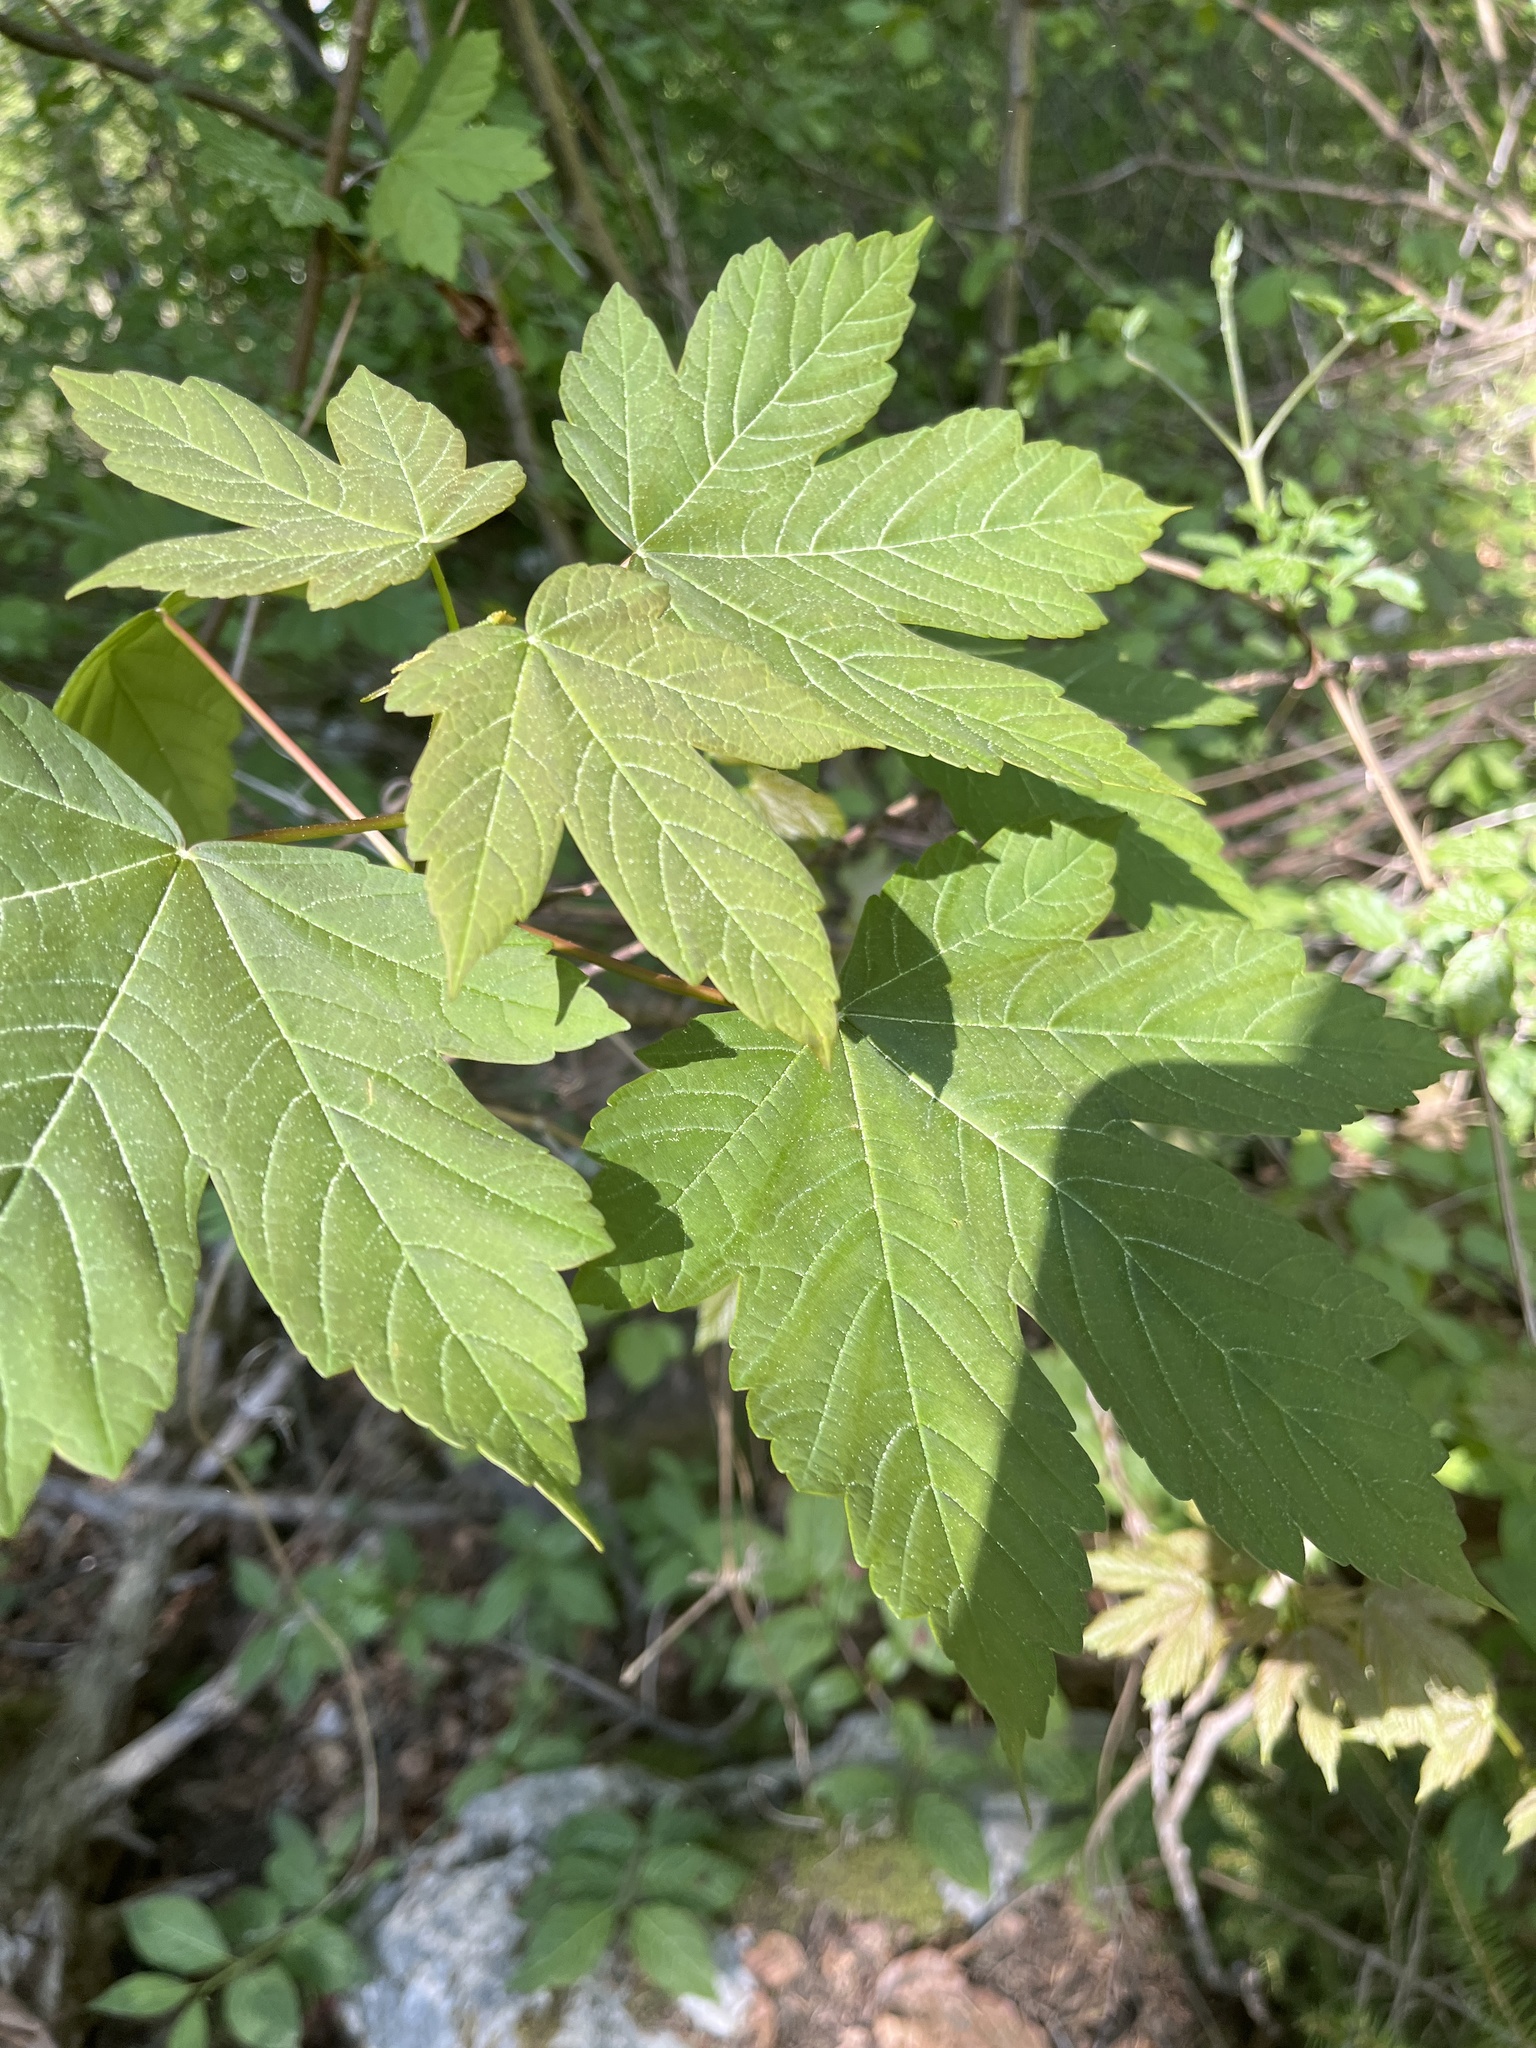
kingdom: Plantae
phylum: Tracheophyta
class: Magnoliopsida
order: Sapindales
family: Sapindaceae
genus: Acer
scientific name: Acer pseudoplatanus
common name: Sycamore
